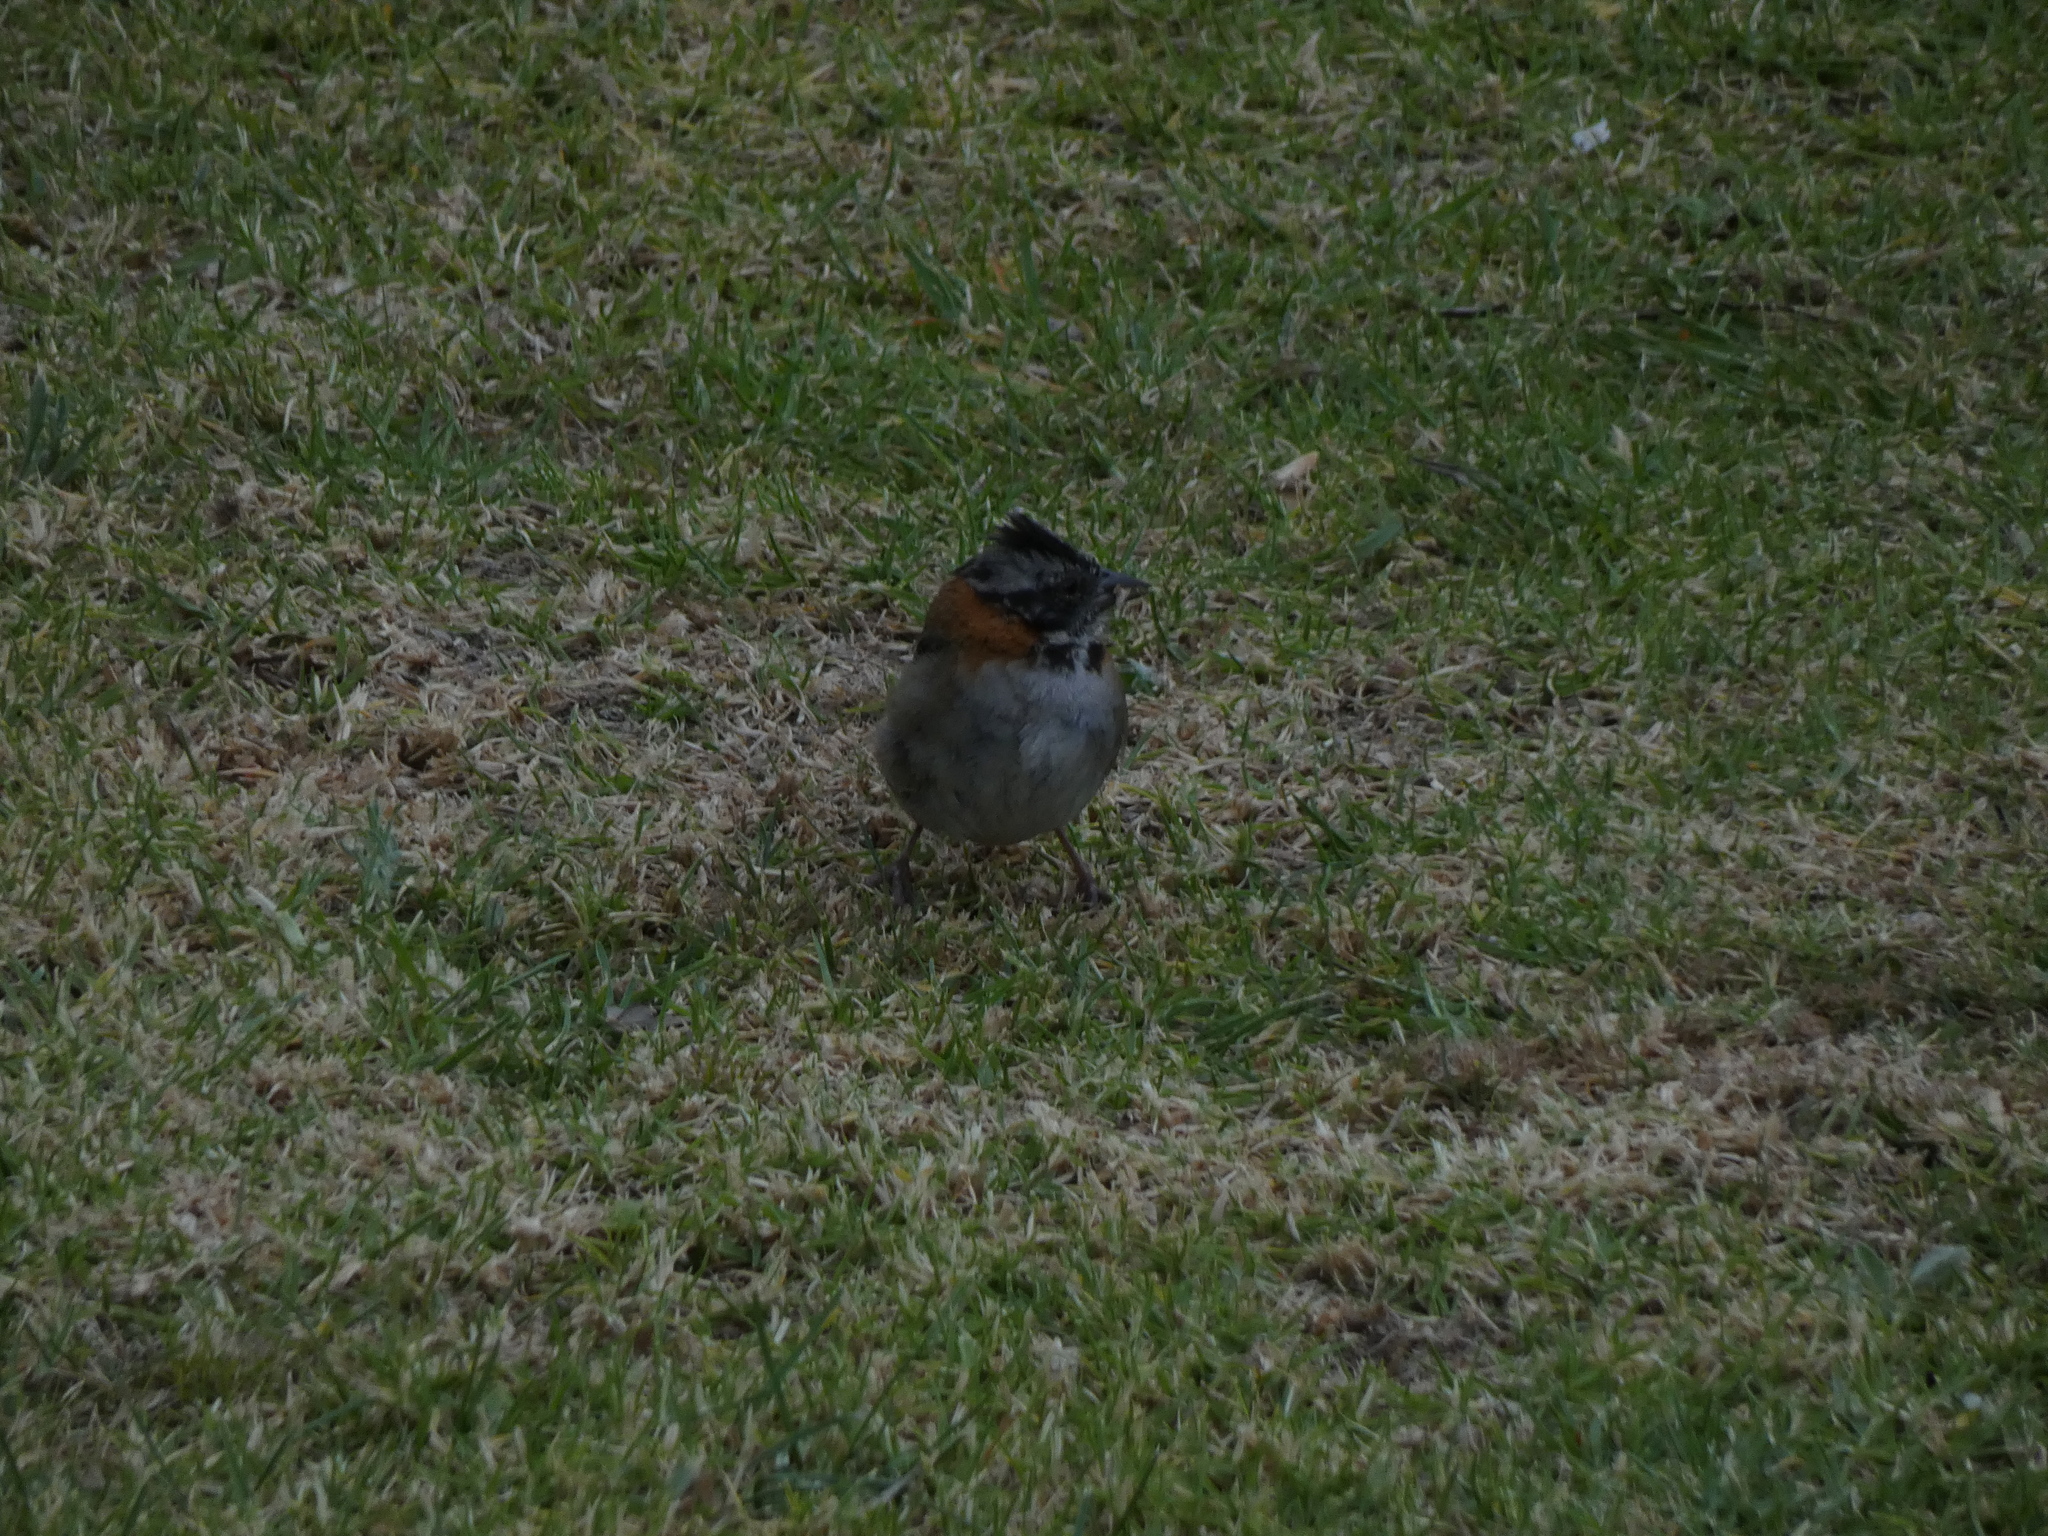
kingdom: Animalia
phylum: Chordata
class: Aves
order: Passeriformes
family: Passerellidae
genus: Zonotrichia
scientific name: Zonotrichia capensis
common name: Rufous-collared sparrow
